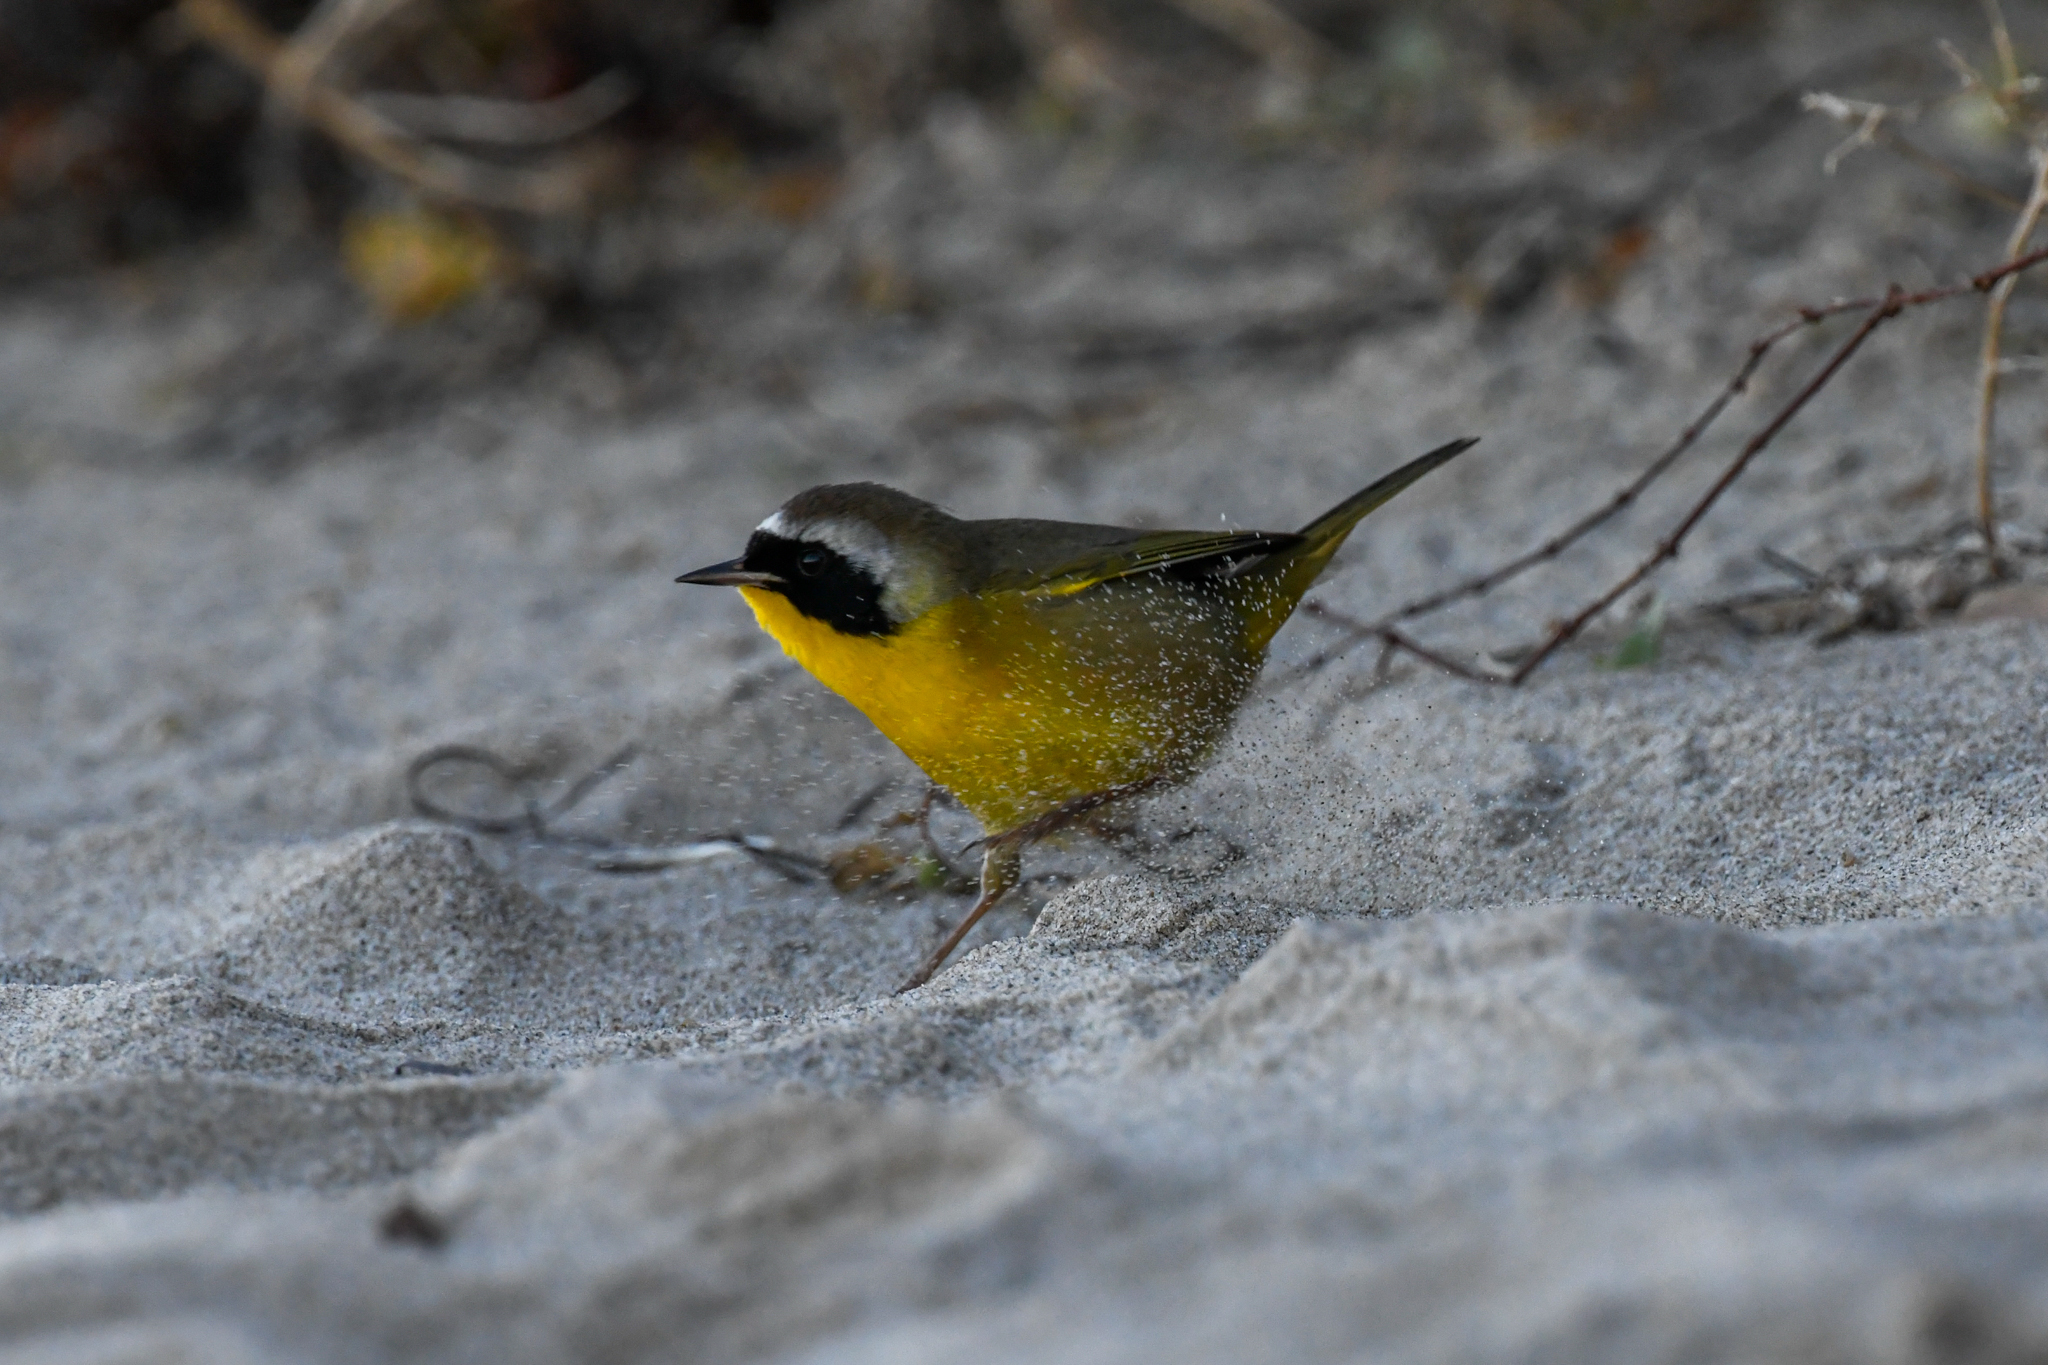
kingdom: Animalia
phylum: Chordata
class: Aves
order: Passeriformes
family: Parulidae
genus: Geothlypis
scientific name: Geothlypis trichas
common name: Common yellowthroat
